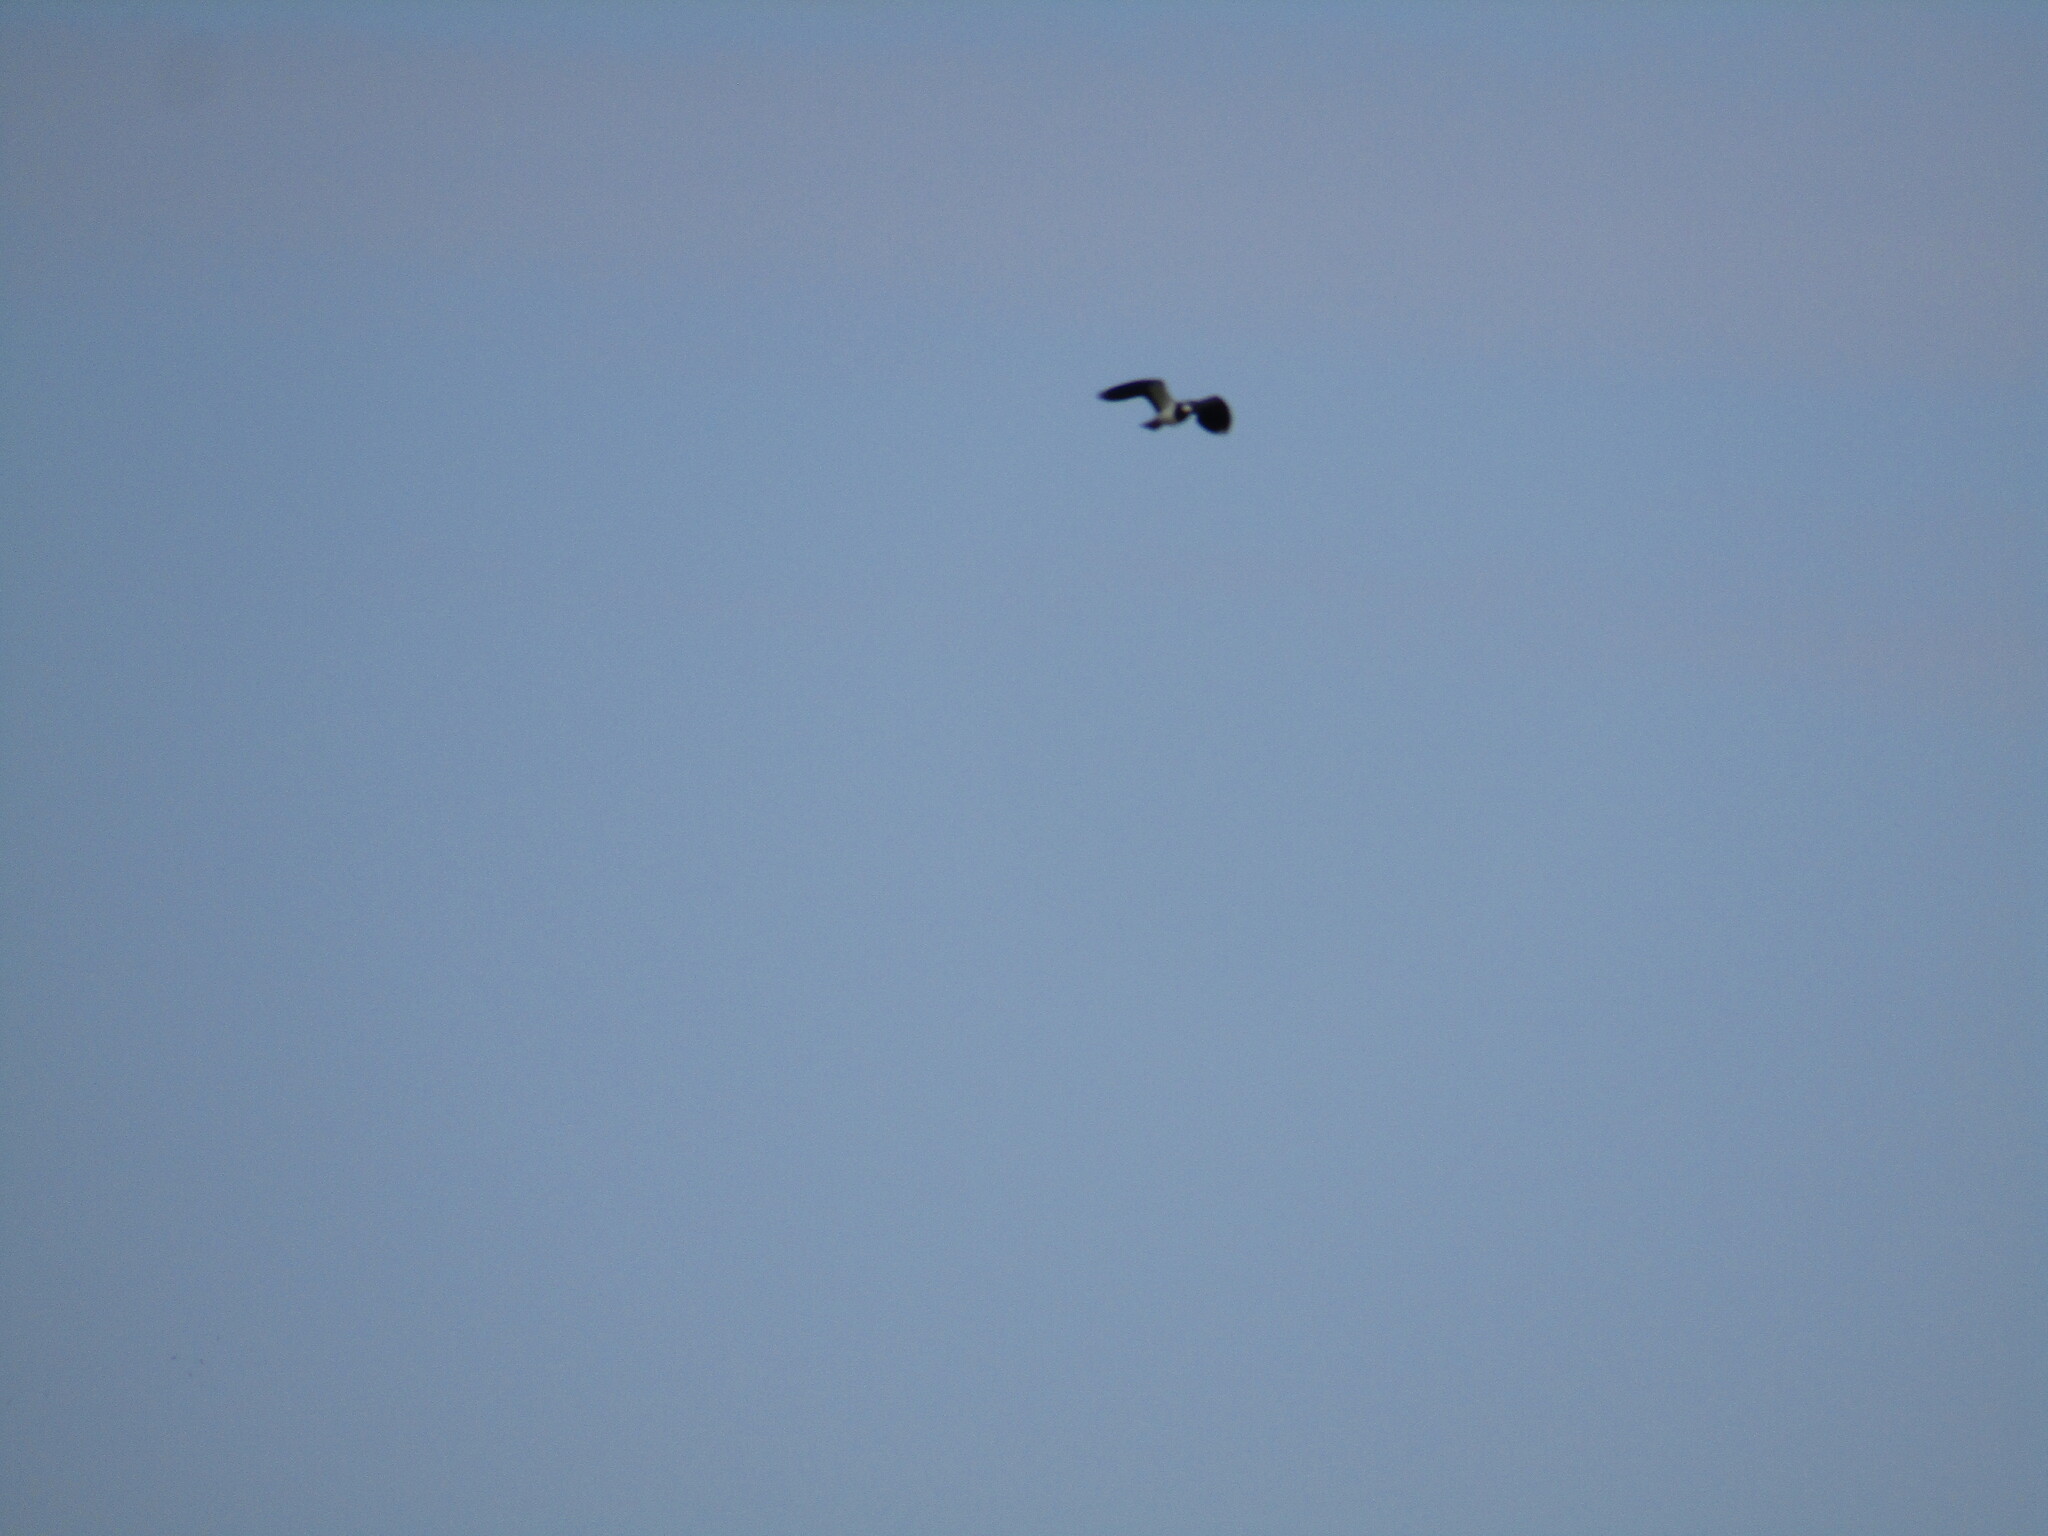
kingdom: Animalia
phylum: Chordata
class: Aves
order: Charadriiformes
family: Charadriidae
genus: Vanellus
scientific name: Vanellus vanellus
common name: Northern lapwing
